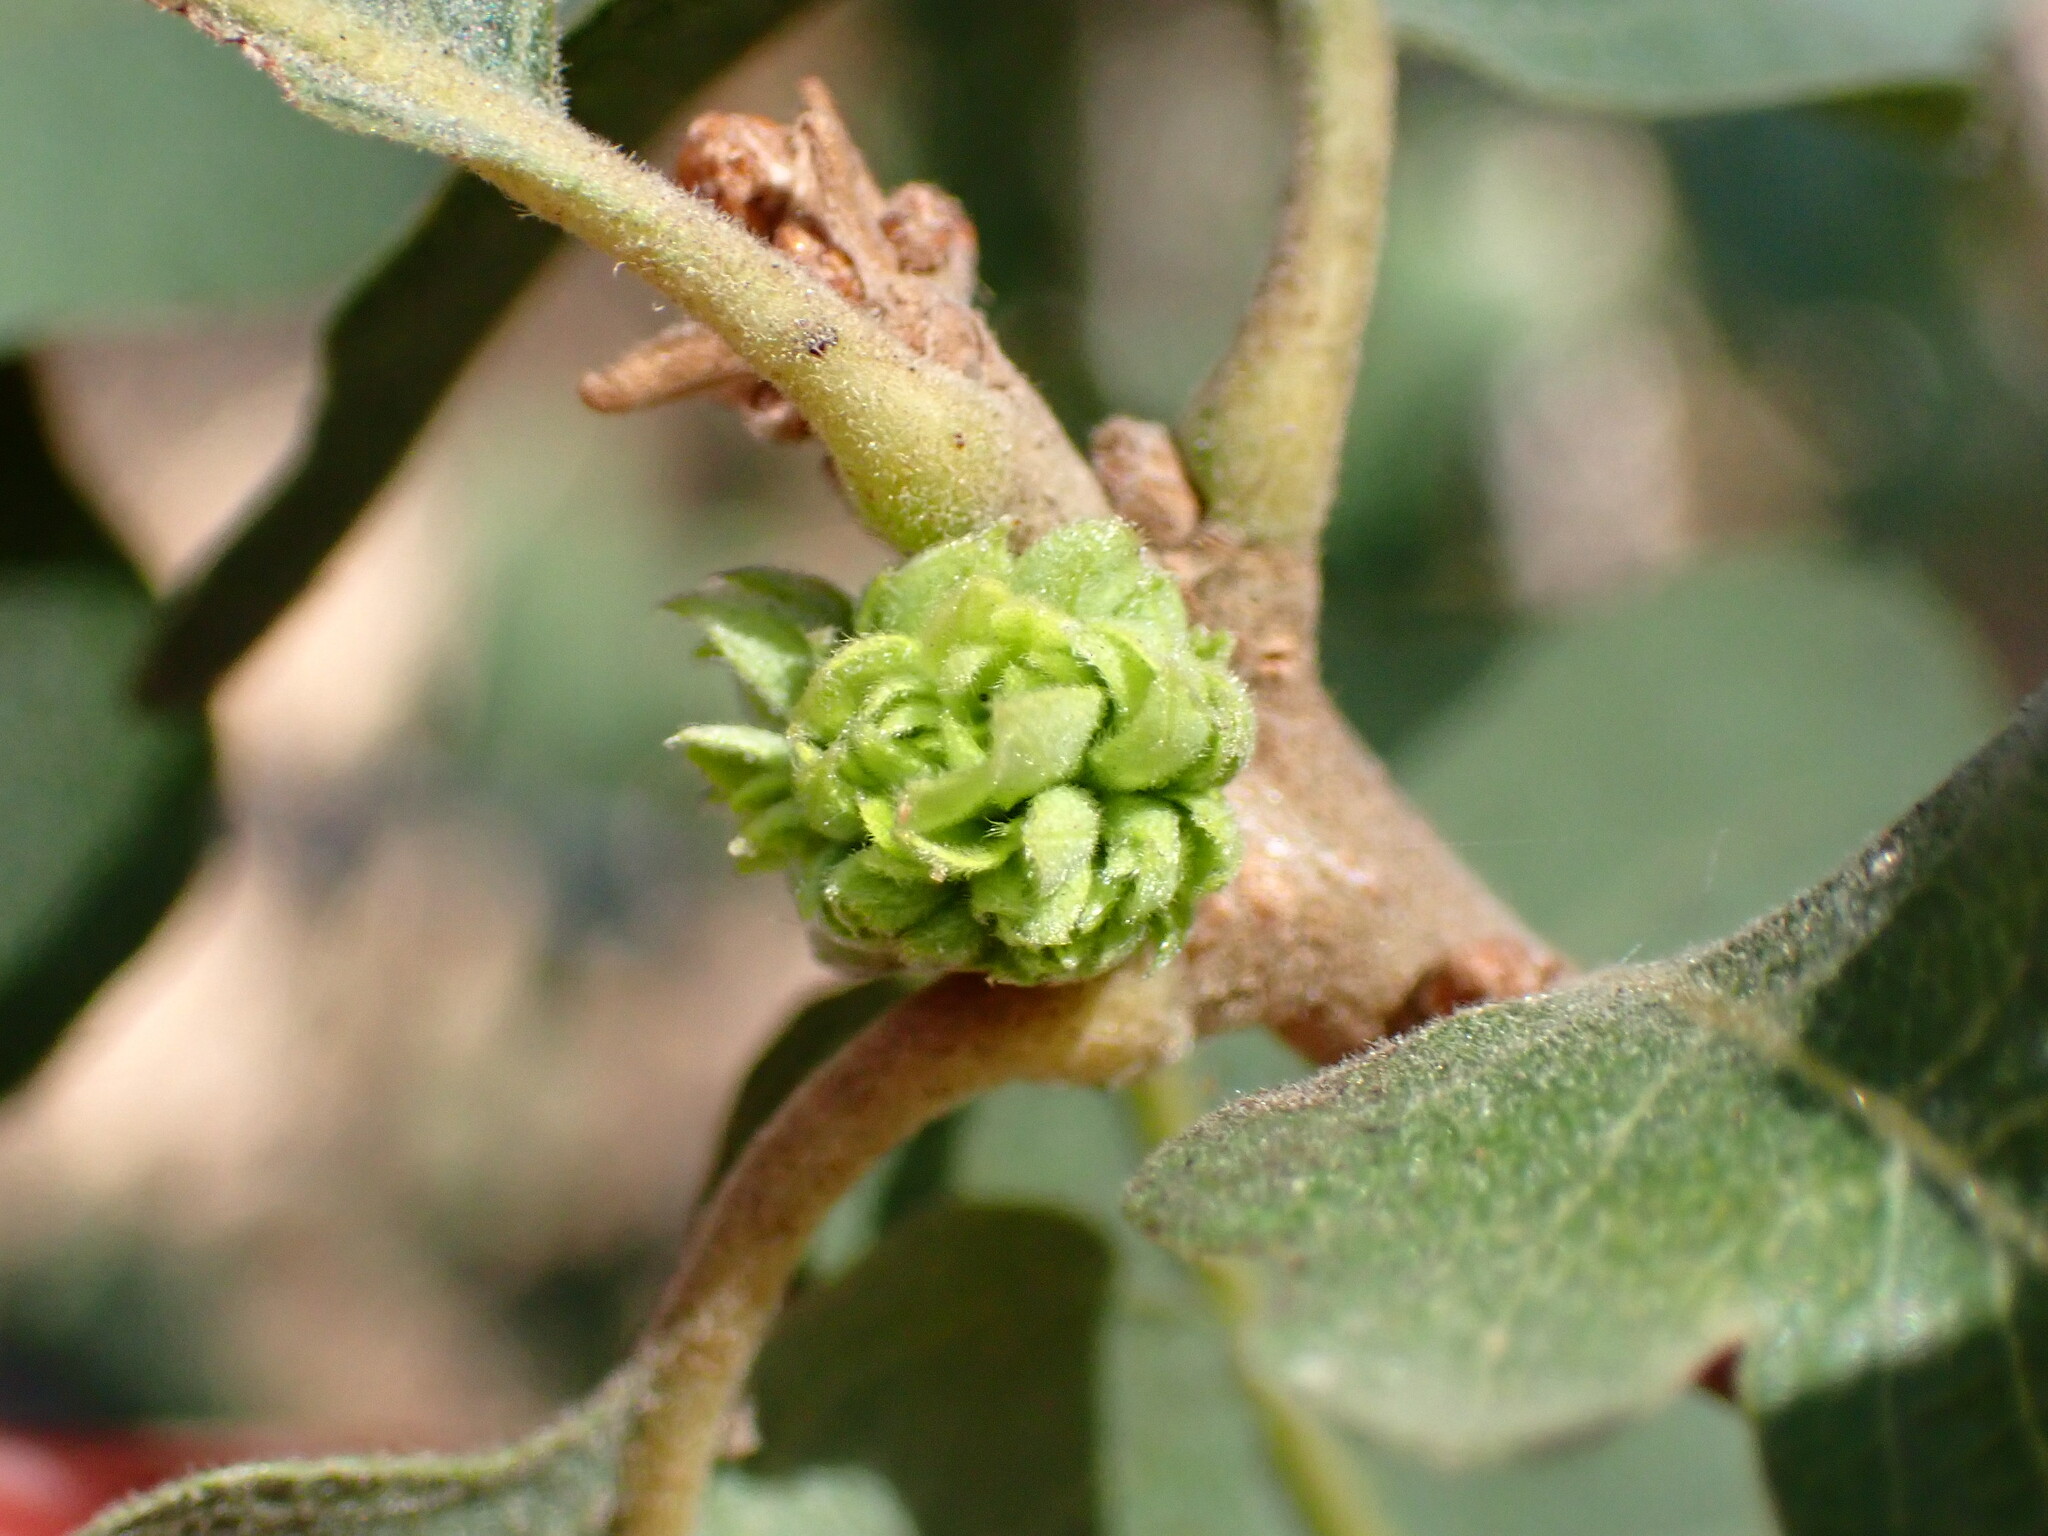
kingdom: Animalia
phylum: Arthropoda
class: Insecta
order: Hymenoptera
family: Cynipidae
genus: Andricus
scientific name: Andricus
